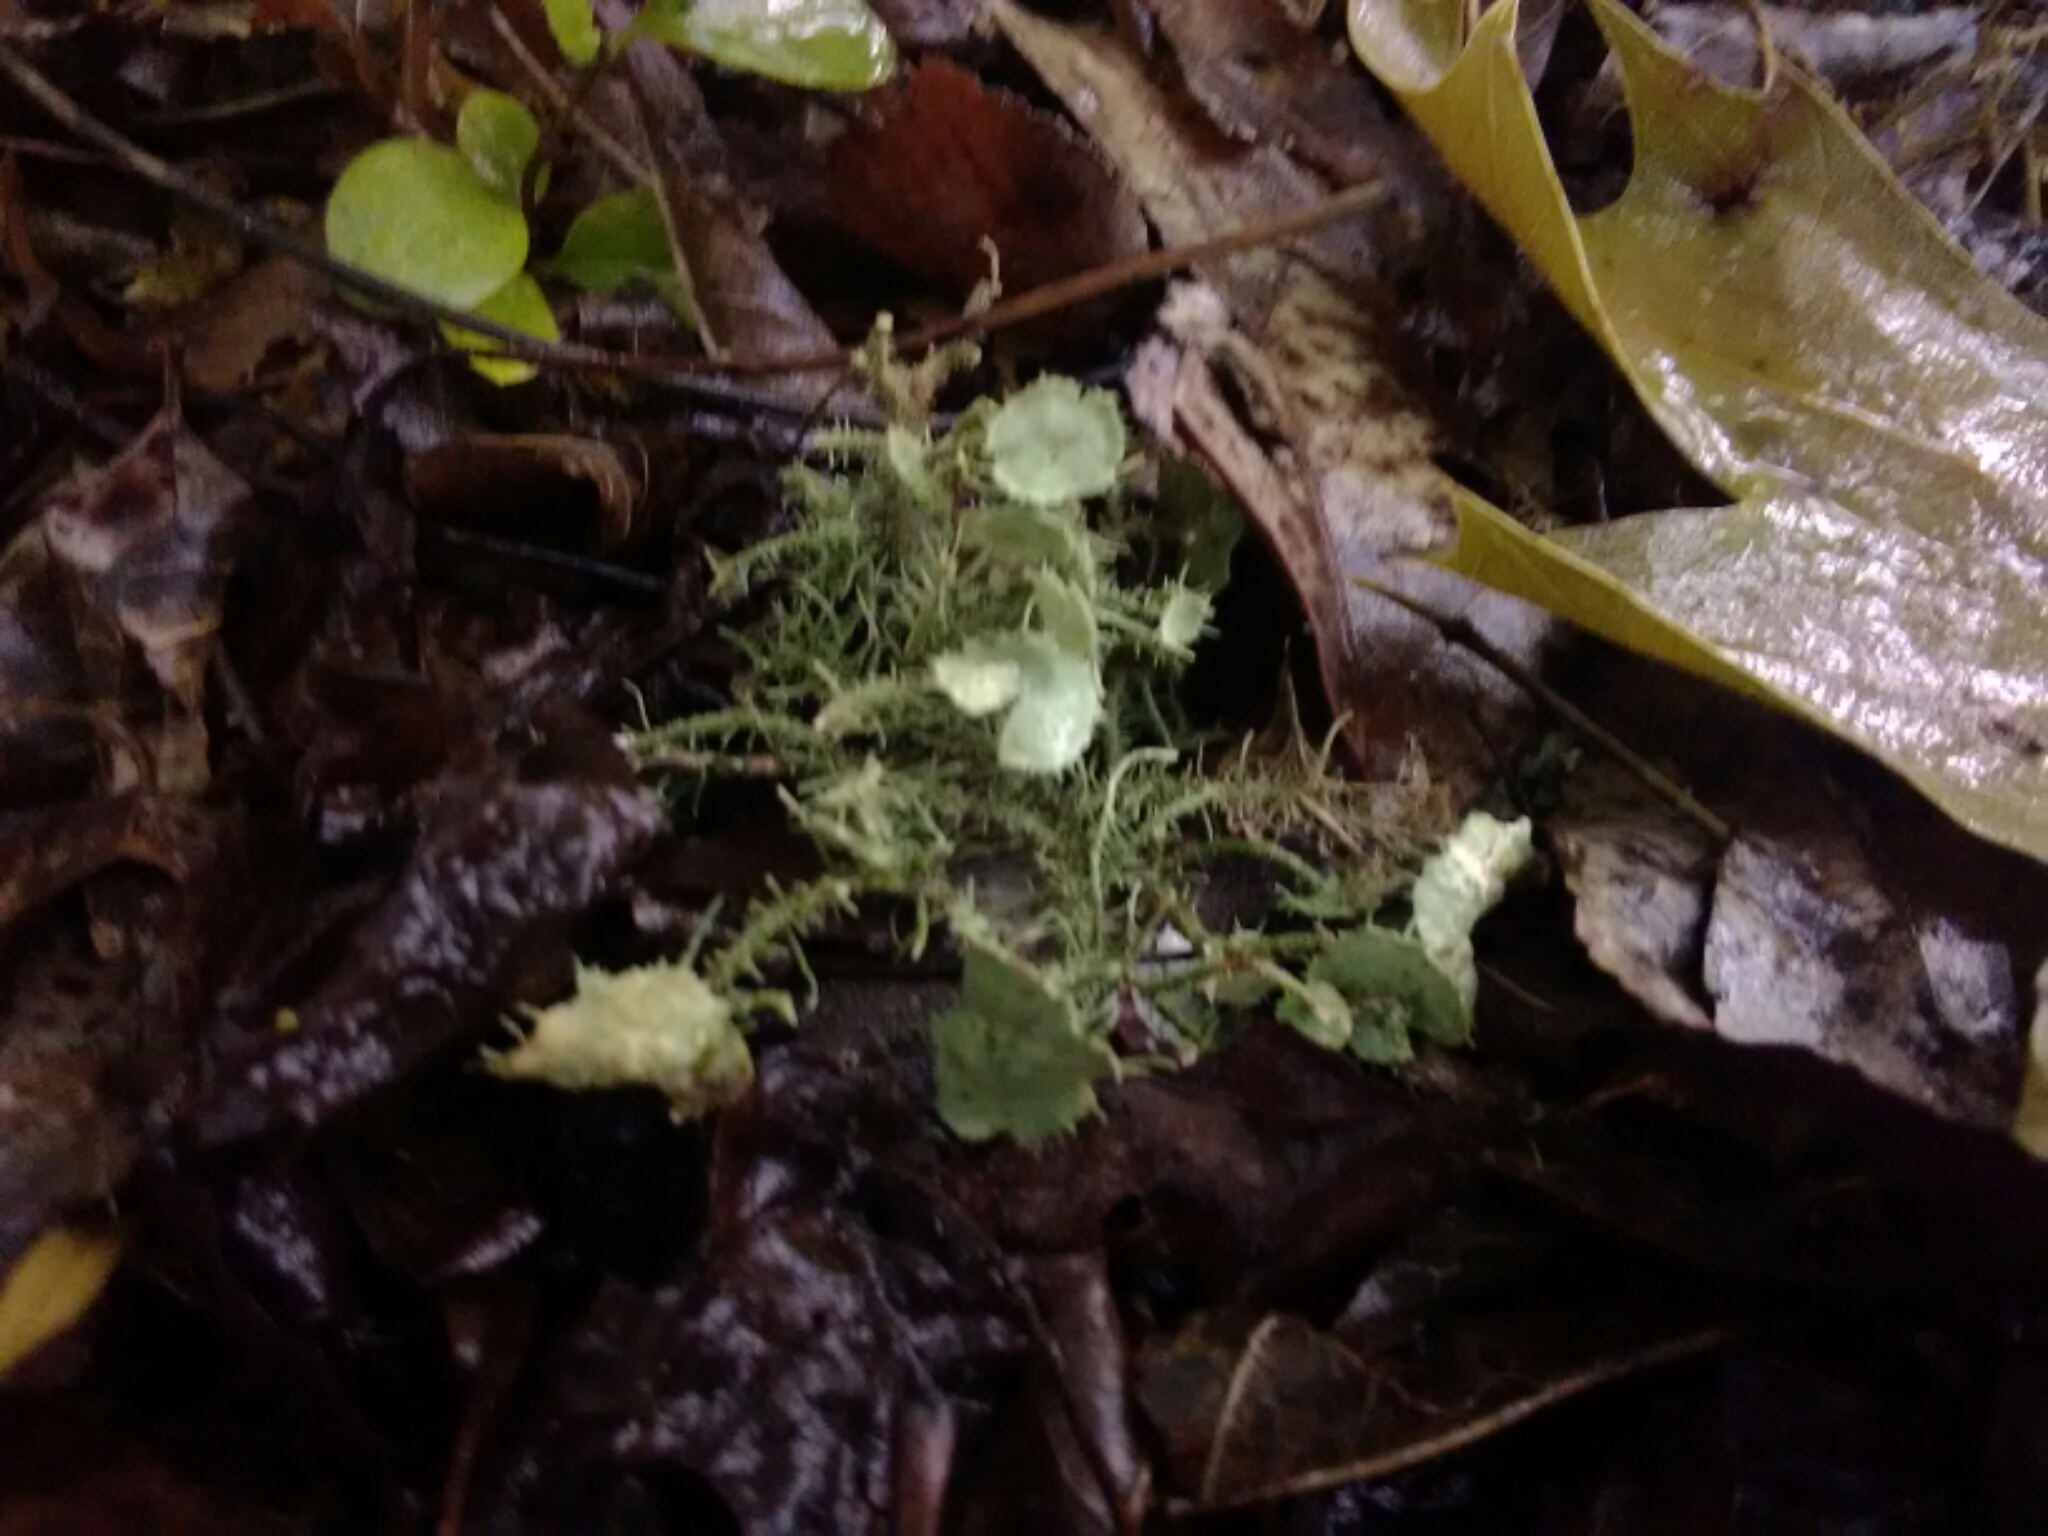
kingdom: Fungi
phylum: Ascomycota
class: Lecanoromycetes
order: Lecanorales
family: Parmeliaceae
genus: Usnea
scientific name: Usnea strigosa
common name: Bushy beard lichen
